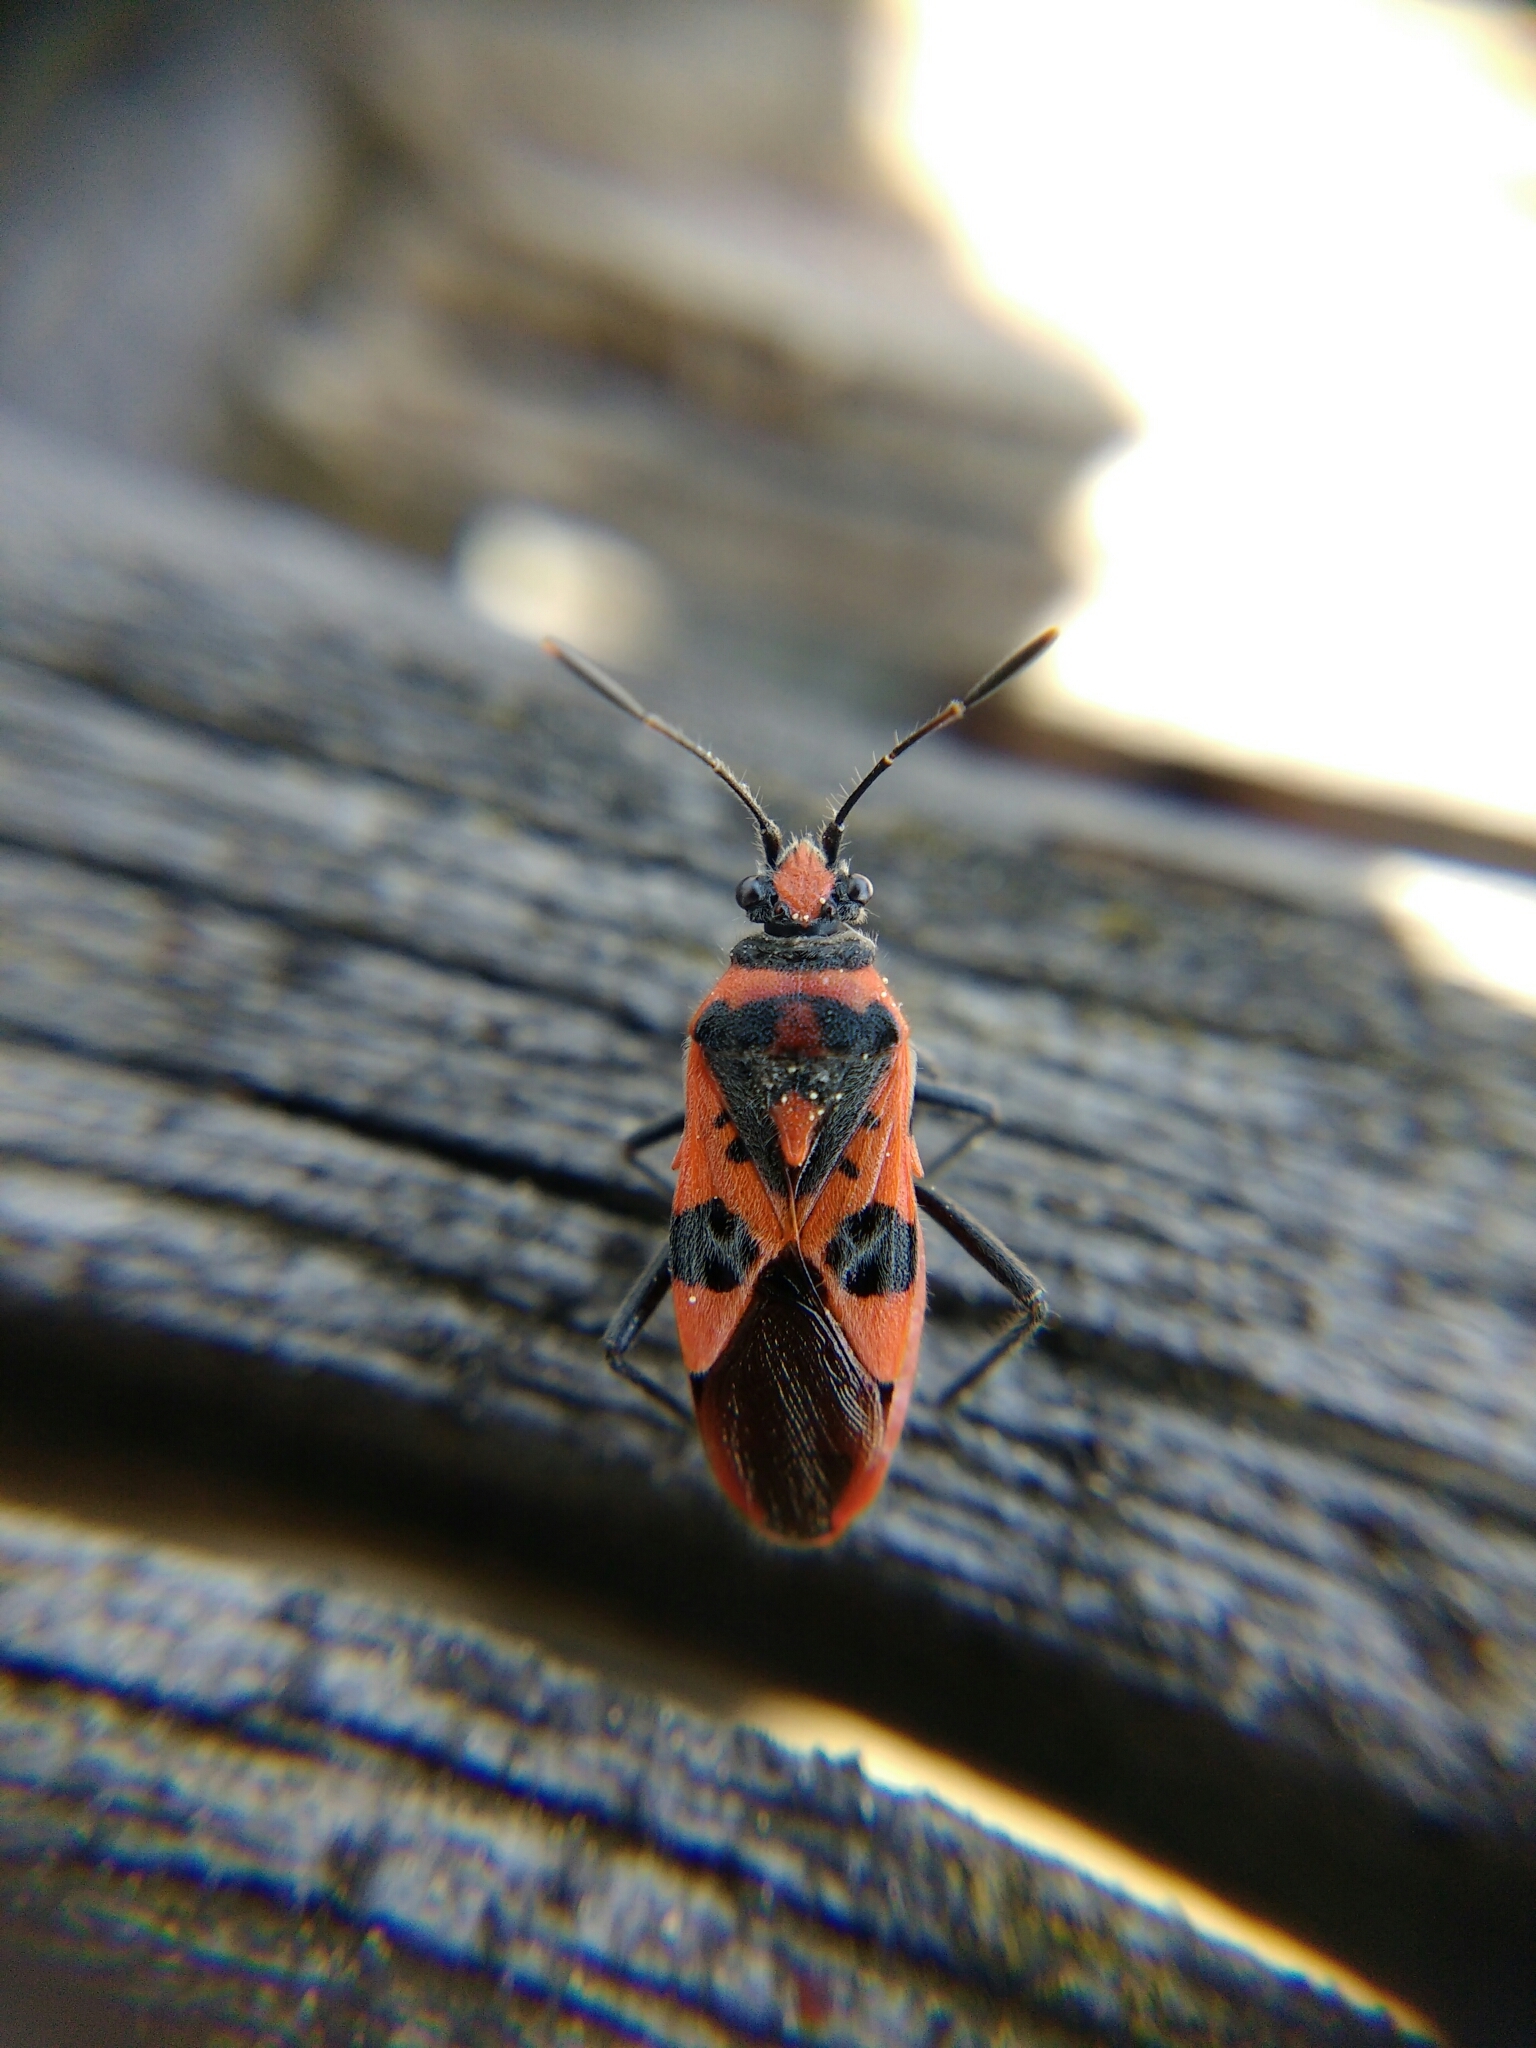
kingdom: Animalia
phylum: Arthropoda
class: Insecta
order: Hemiptera
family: Rhopalidae
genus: Corizus
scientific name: Corizus hyoscyami
